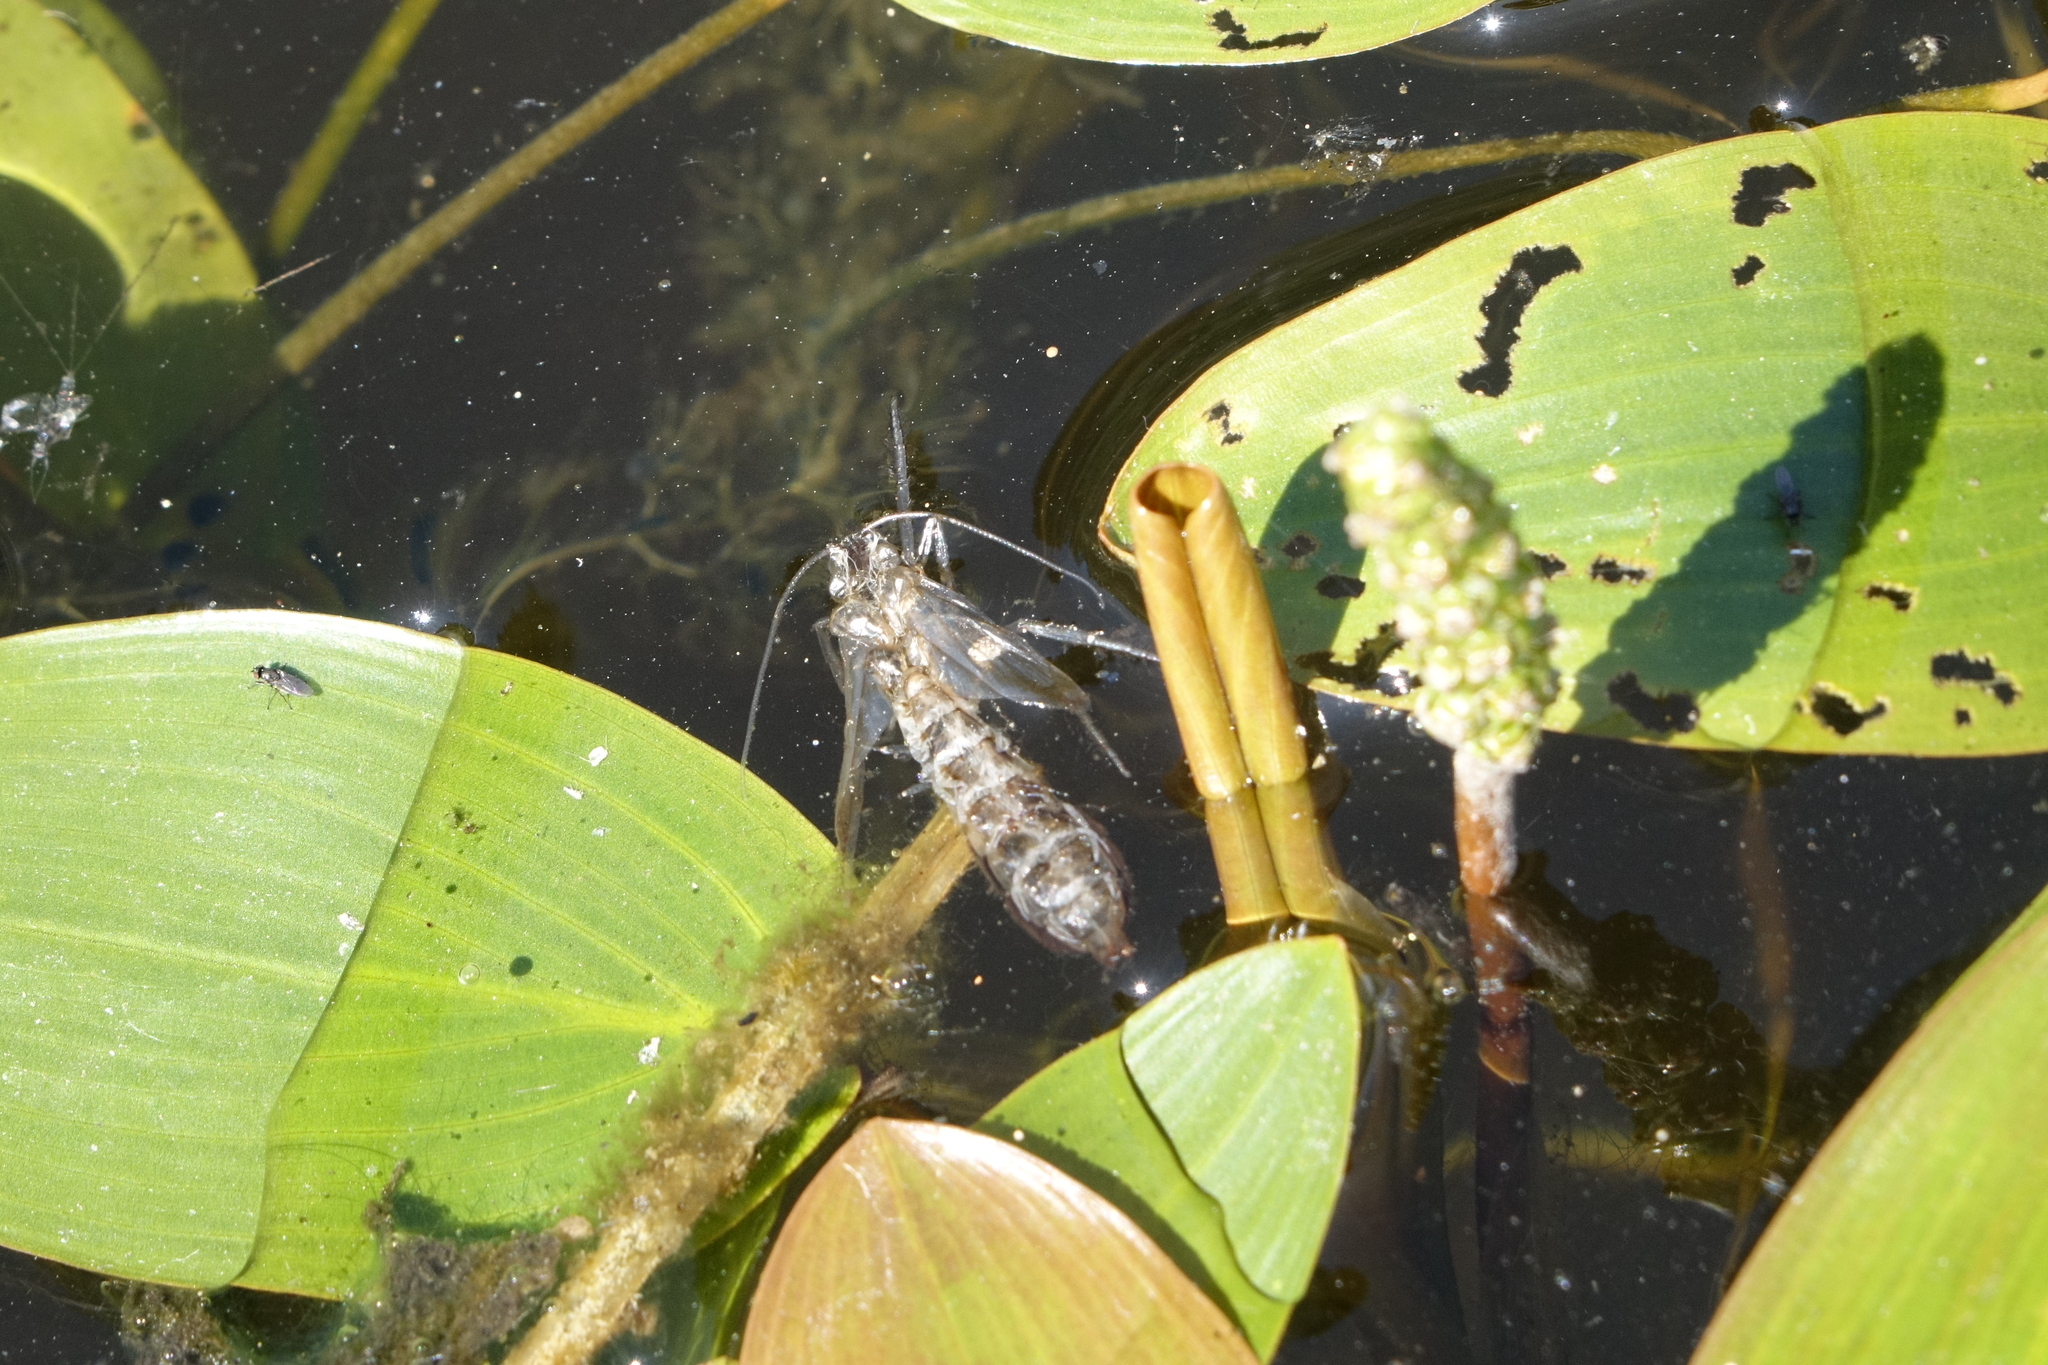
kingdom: Plantae
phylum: Tracheophyta
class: Liliopsida
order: Alismatales
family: Potamogetonaceae
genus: Potamogeton
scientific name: Potamogeton natans
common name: Broad-leaved pondweed
